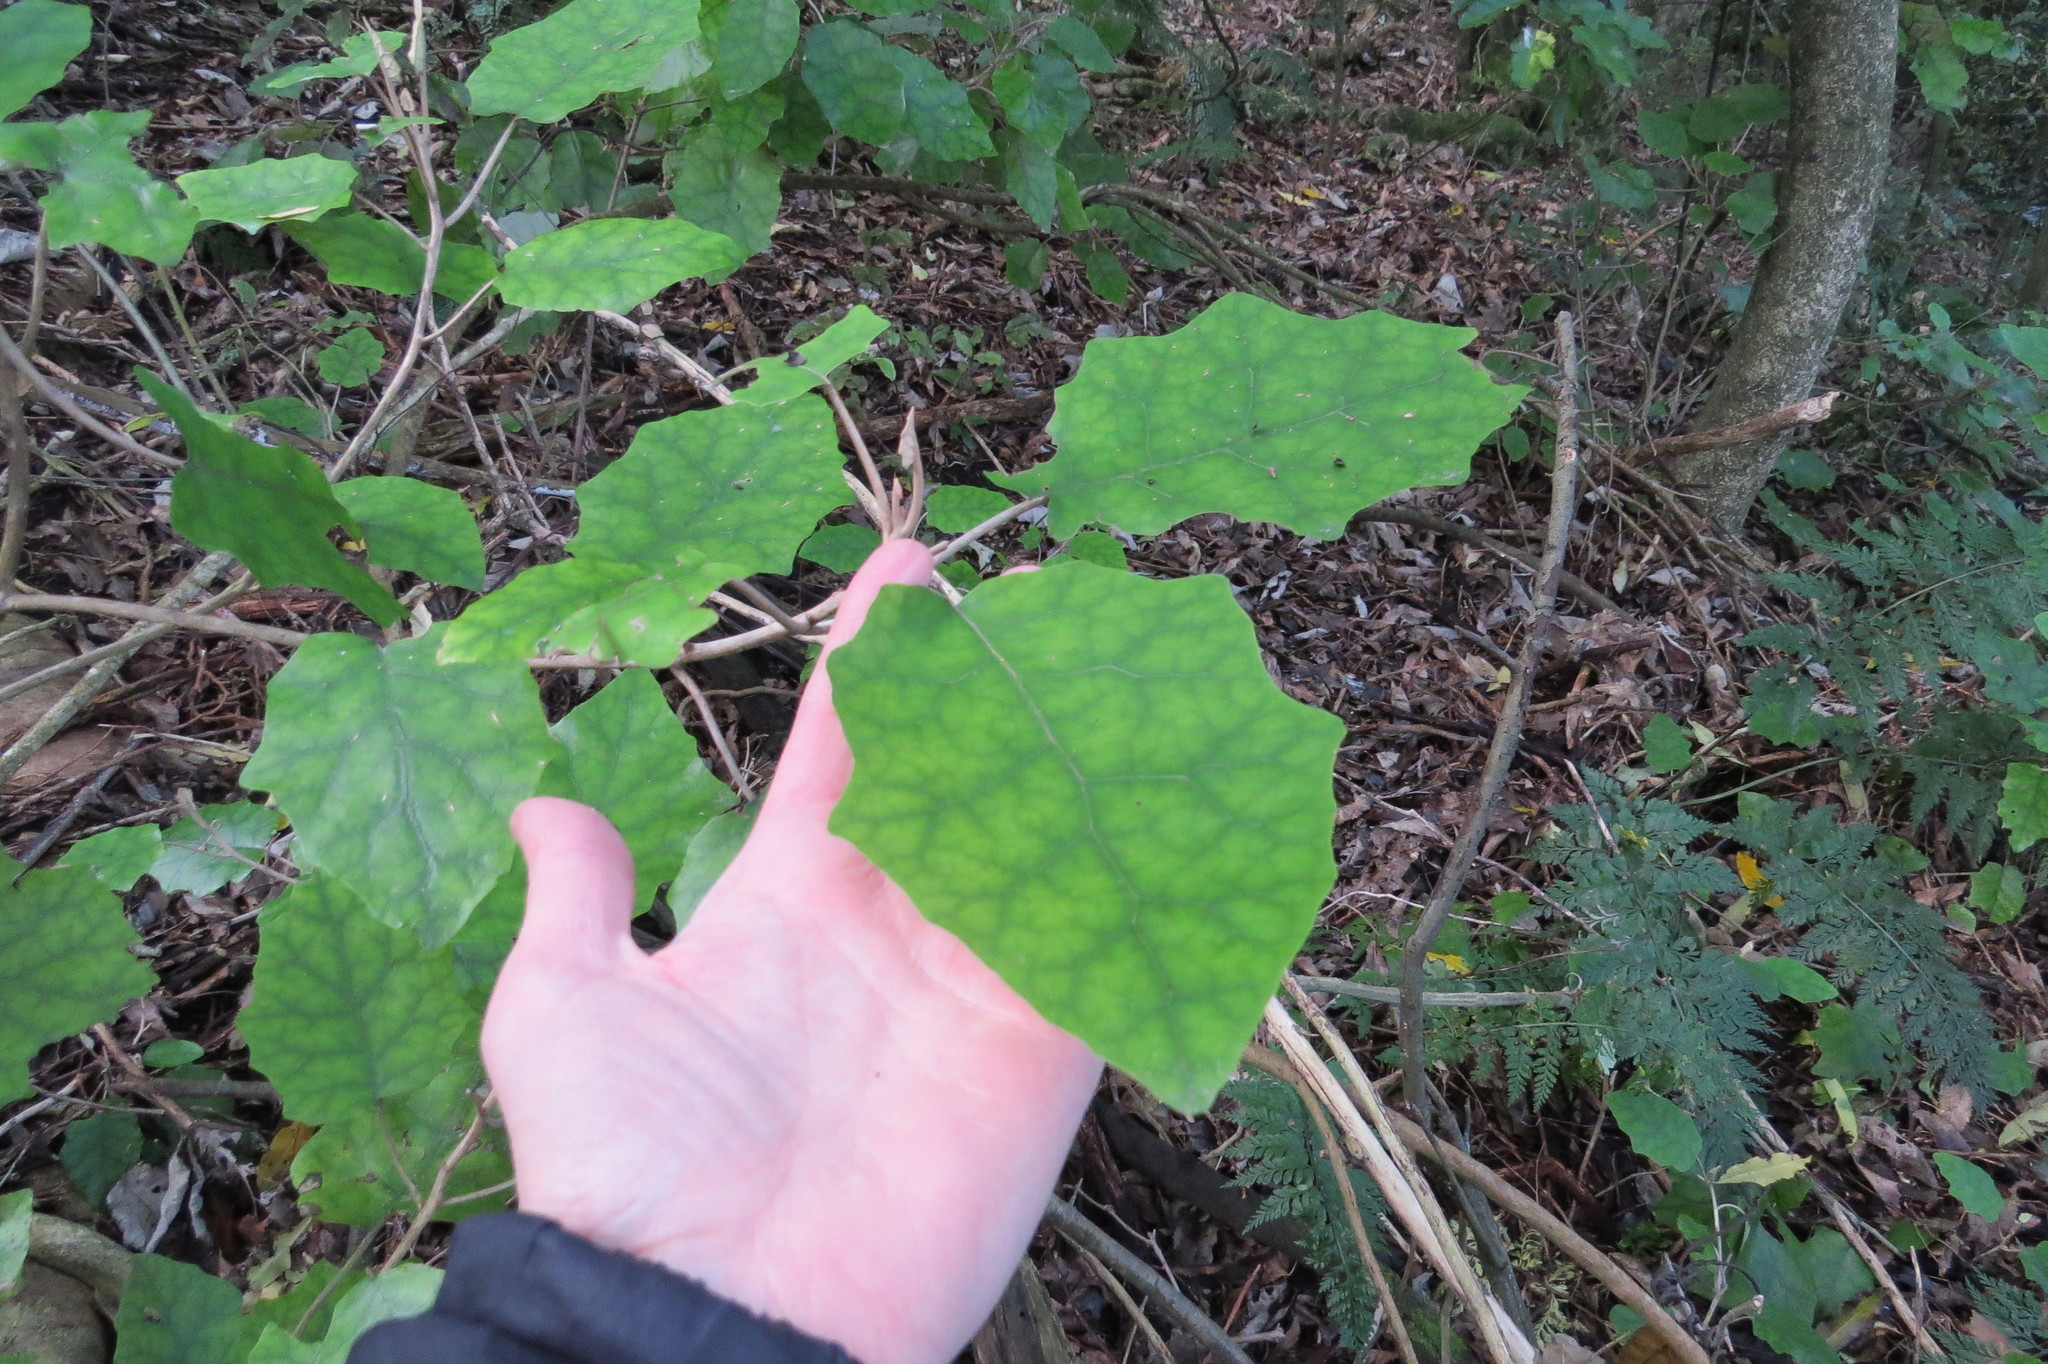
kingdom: Plantae
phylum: Tracheophyta
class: Magnoliopsida
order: Asterales
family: Asteraceae
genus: Brachyglottis
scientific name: Brachyglottis repanda
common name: Hedge ragwort
